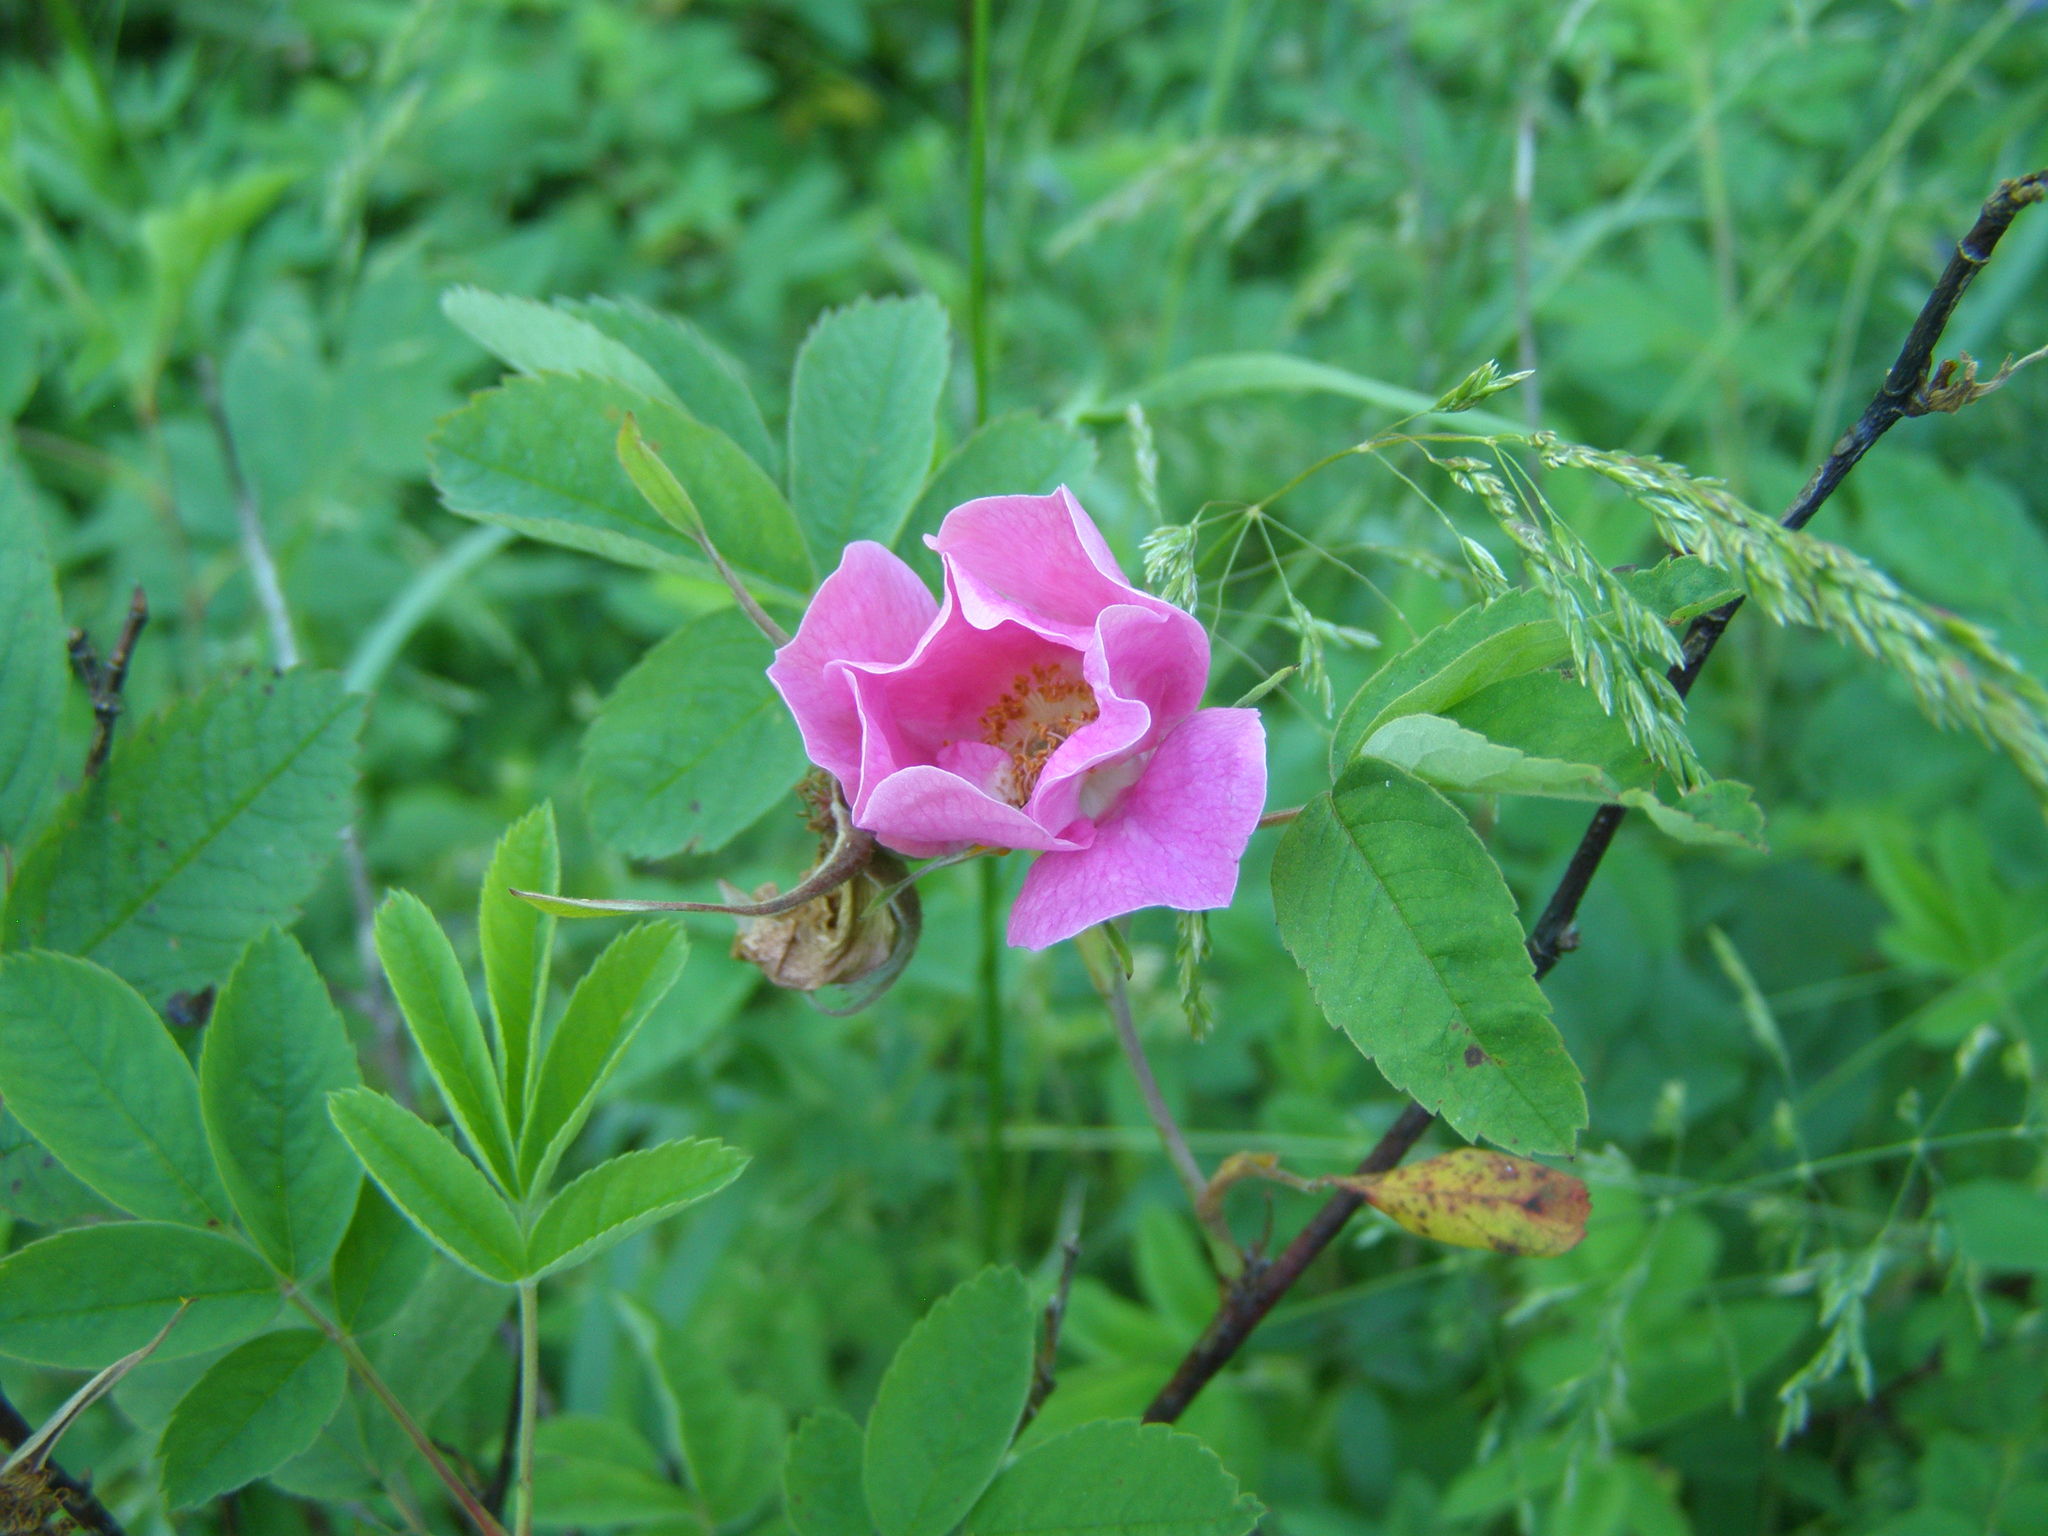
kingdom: Plantae
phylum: Tracheophyta
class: Magnoliopsida
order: Rosales
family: Rosaceae
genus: Rosa
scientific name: Rosa majalis
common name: Cinnamon rose
